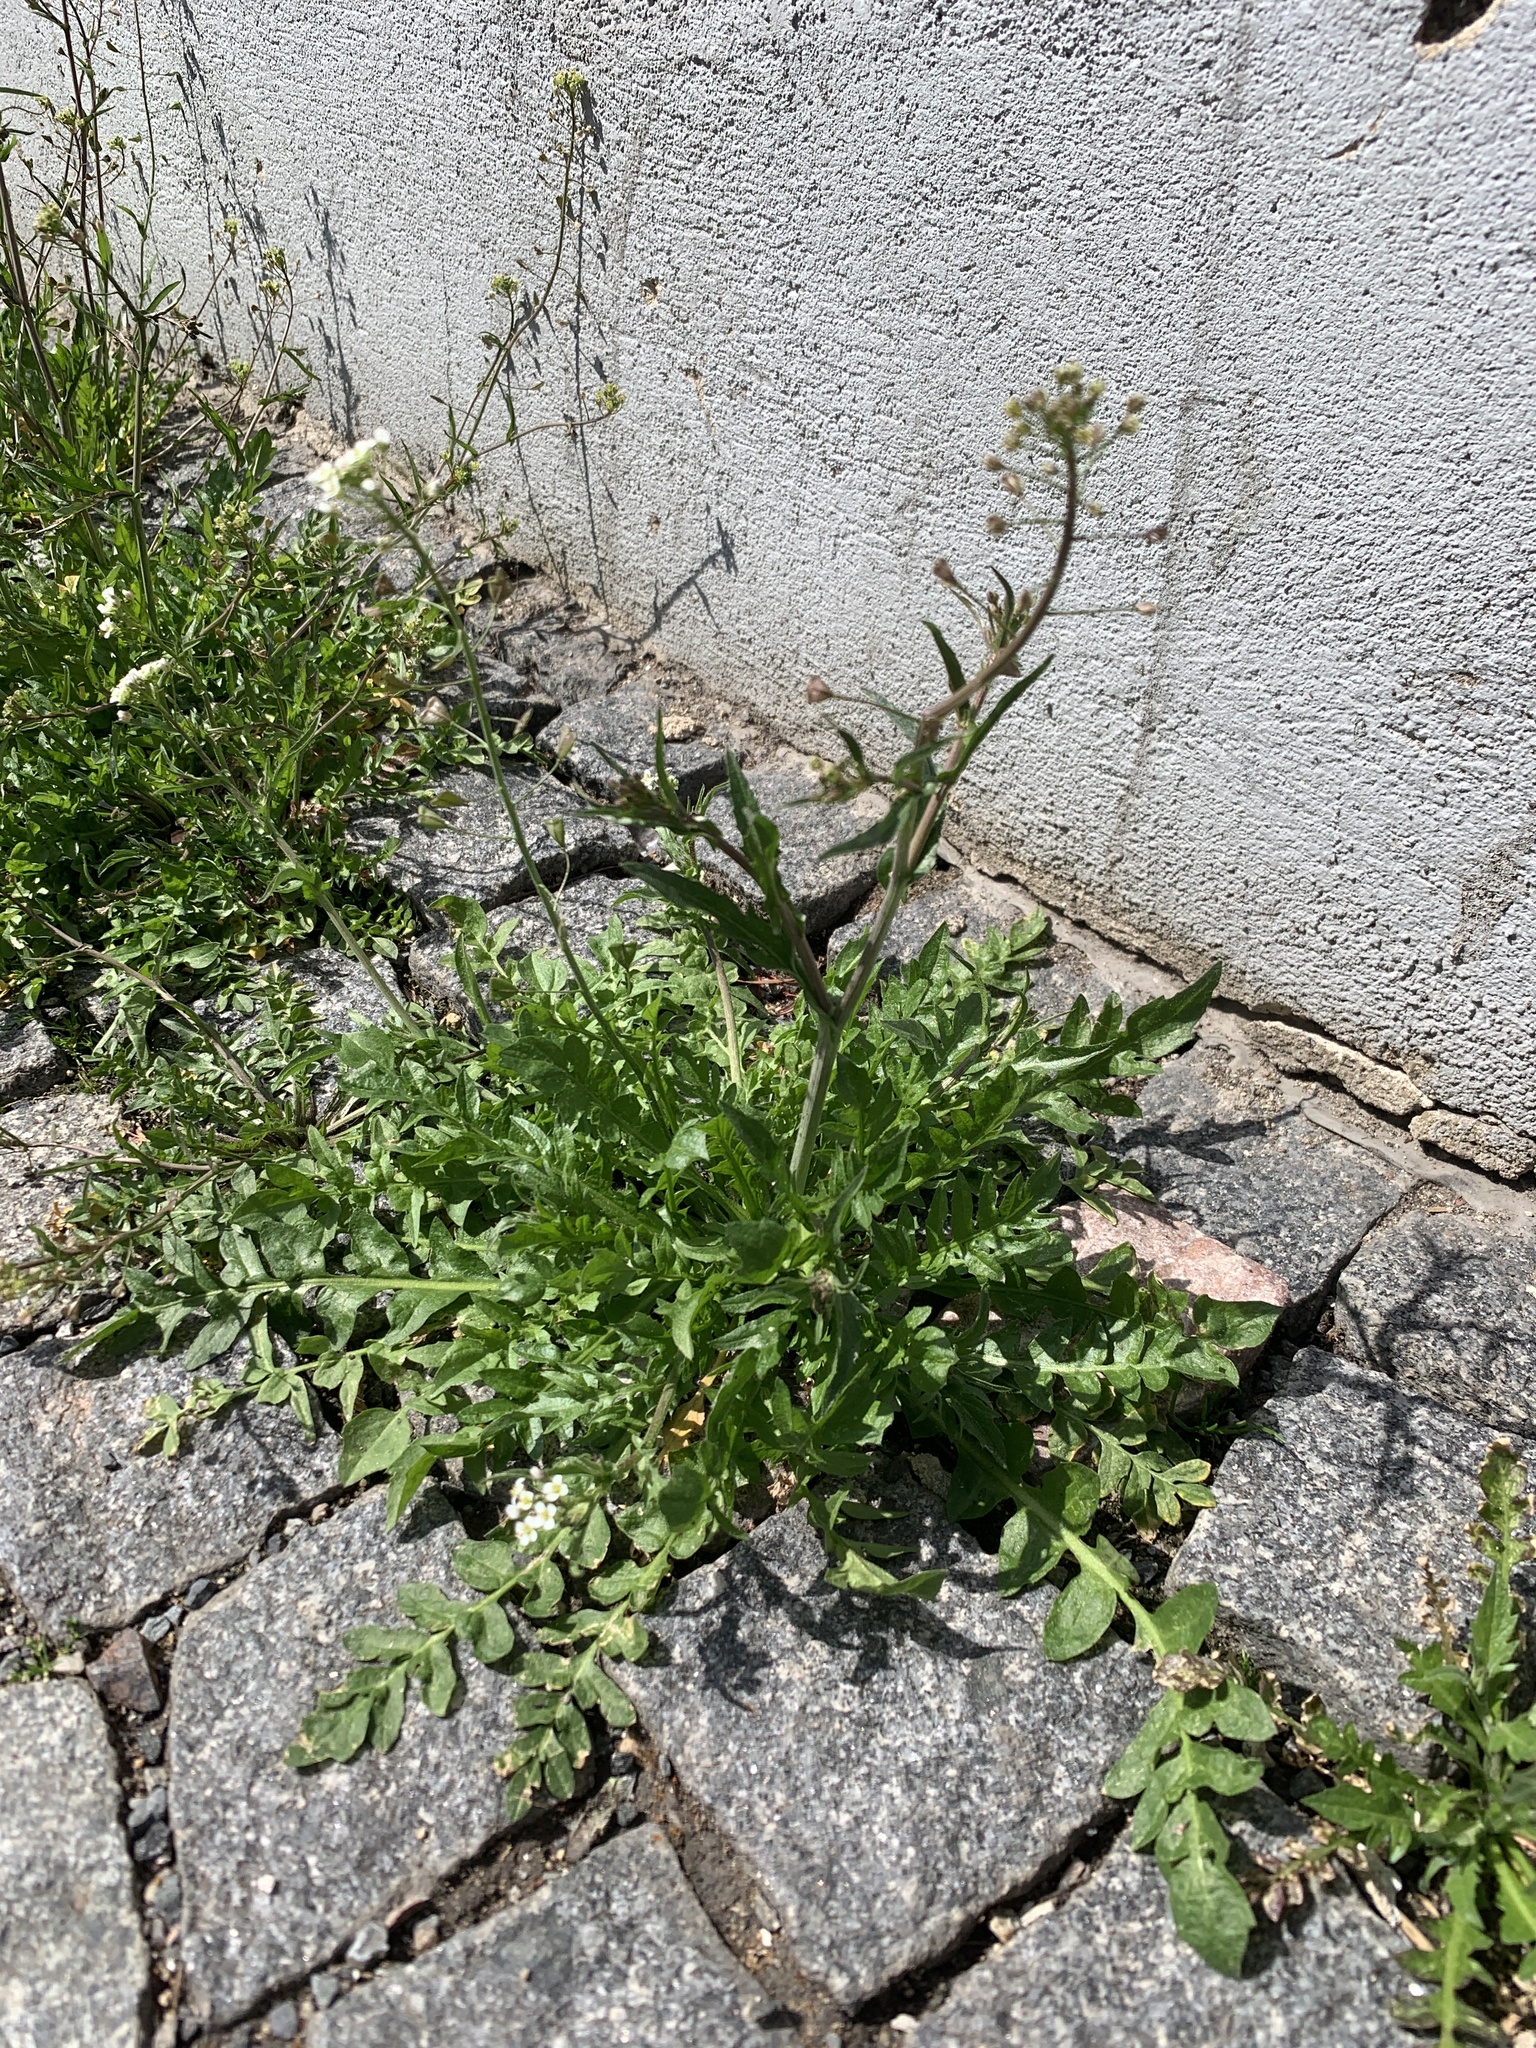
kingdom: Plantae
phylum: Tracheophyta
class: Magnoliopsida
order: Brassicales
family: Brassicaceae
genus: Capsella
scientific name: Capsella bursa-pastoris
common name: Shepherd's purse
